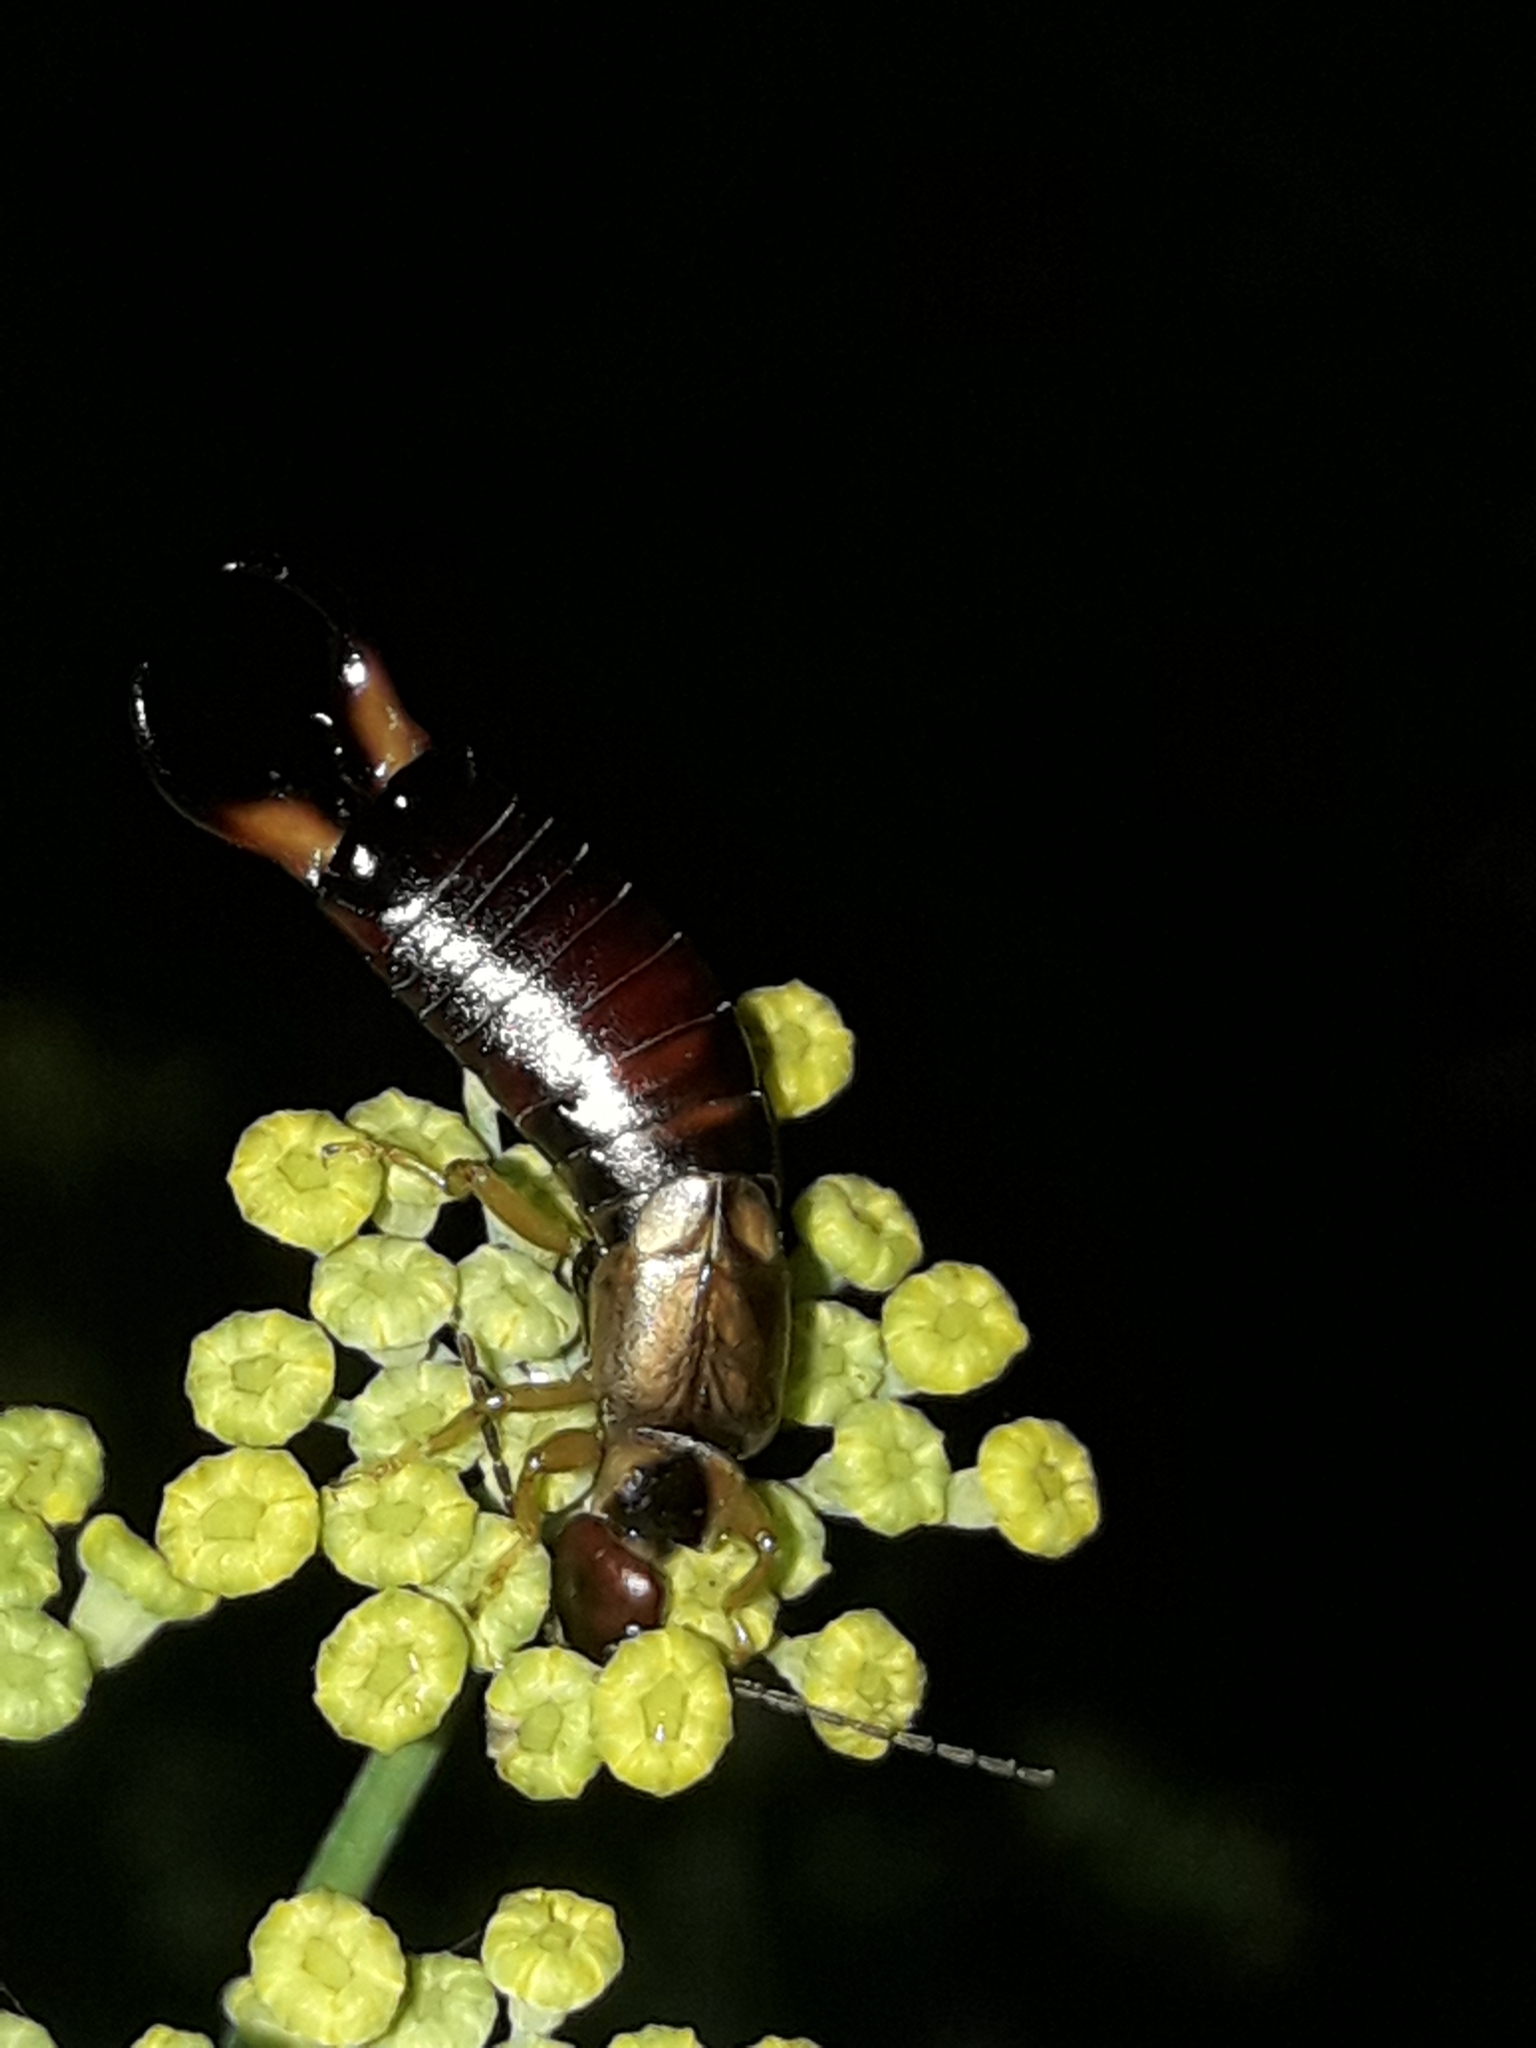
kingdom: Animalia
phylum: Arthropoda
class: Insecta
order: Dermaptera
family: Forficulidae
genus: Forficula
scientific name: Forficula dentata
